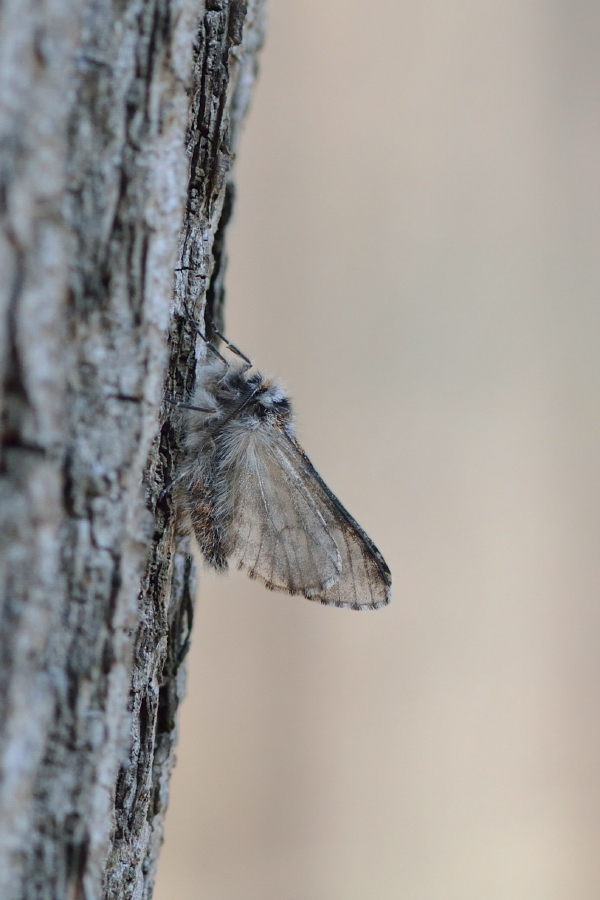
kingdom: Animalia
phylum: Arthropoda
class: Insecta
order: Lepidoptera
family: Geometridae
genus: Lycia
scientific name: Lycia pomonaria
